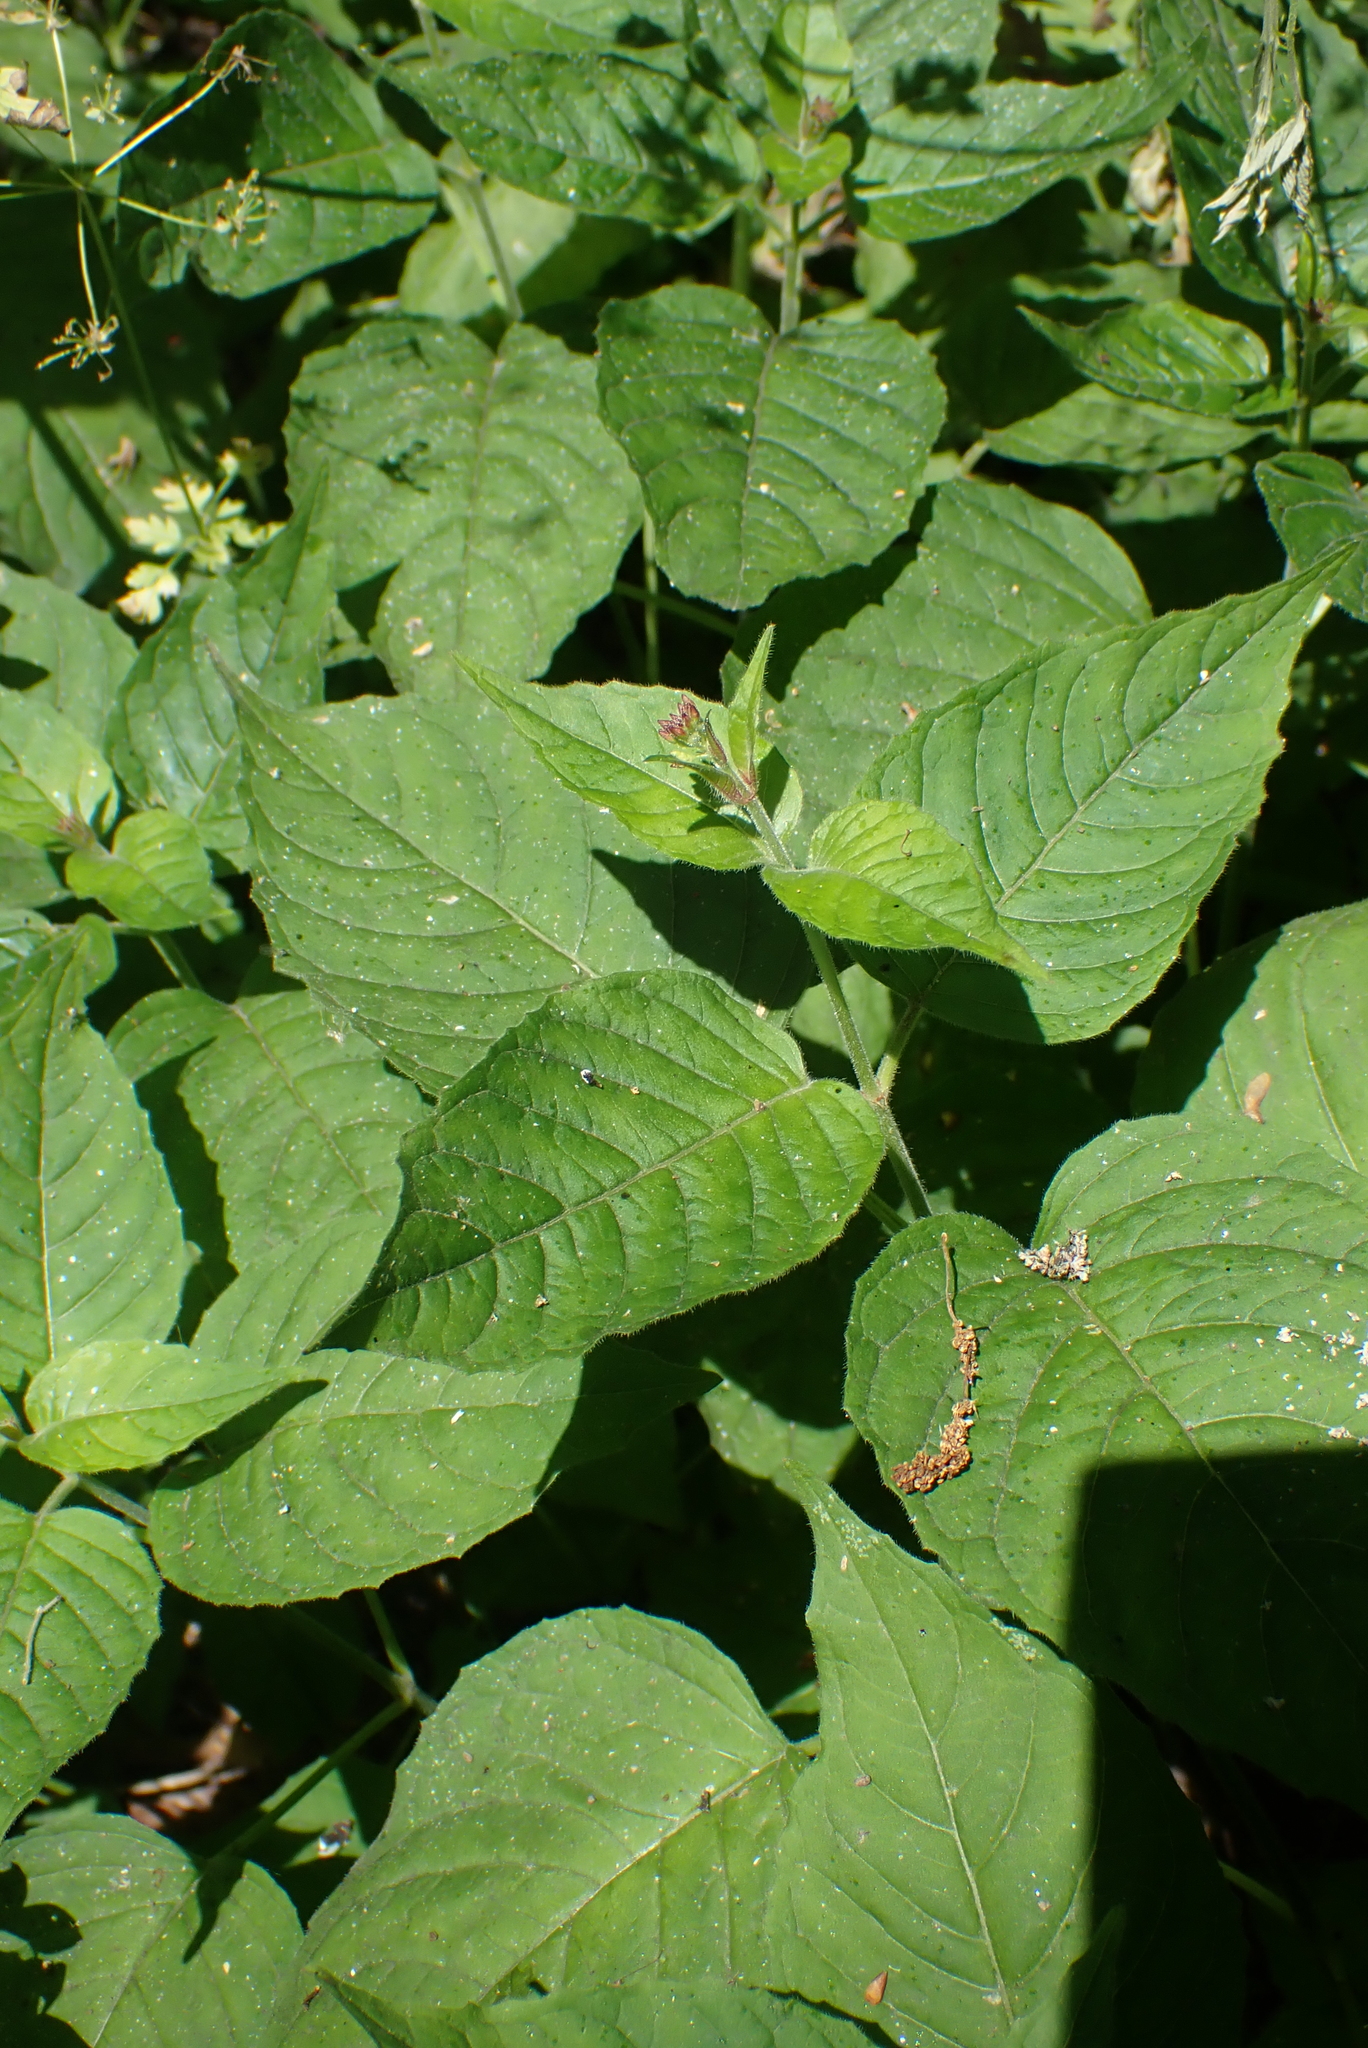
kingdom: Plantae
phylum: Tracheophyta
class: Magnoliopsida
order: Myrtales
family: Onagraceae
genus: Circaea
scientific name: Circaea lutetiana
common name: Enchanter's-nightshade
